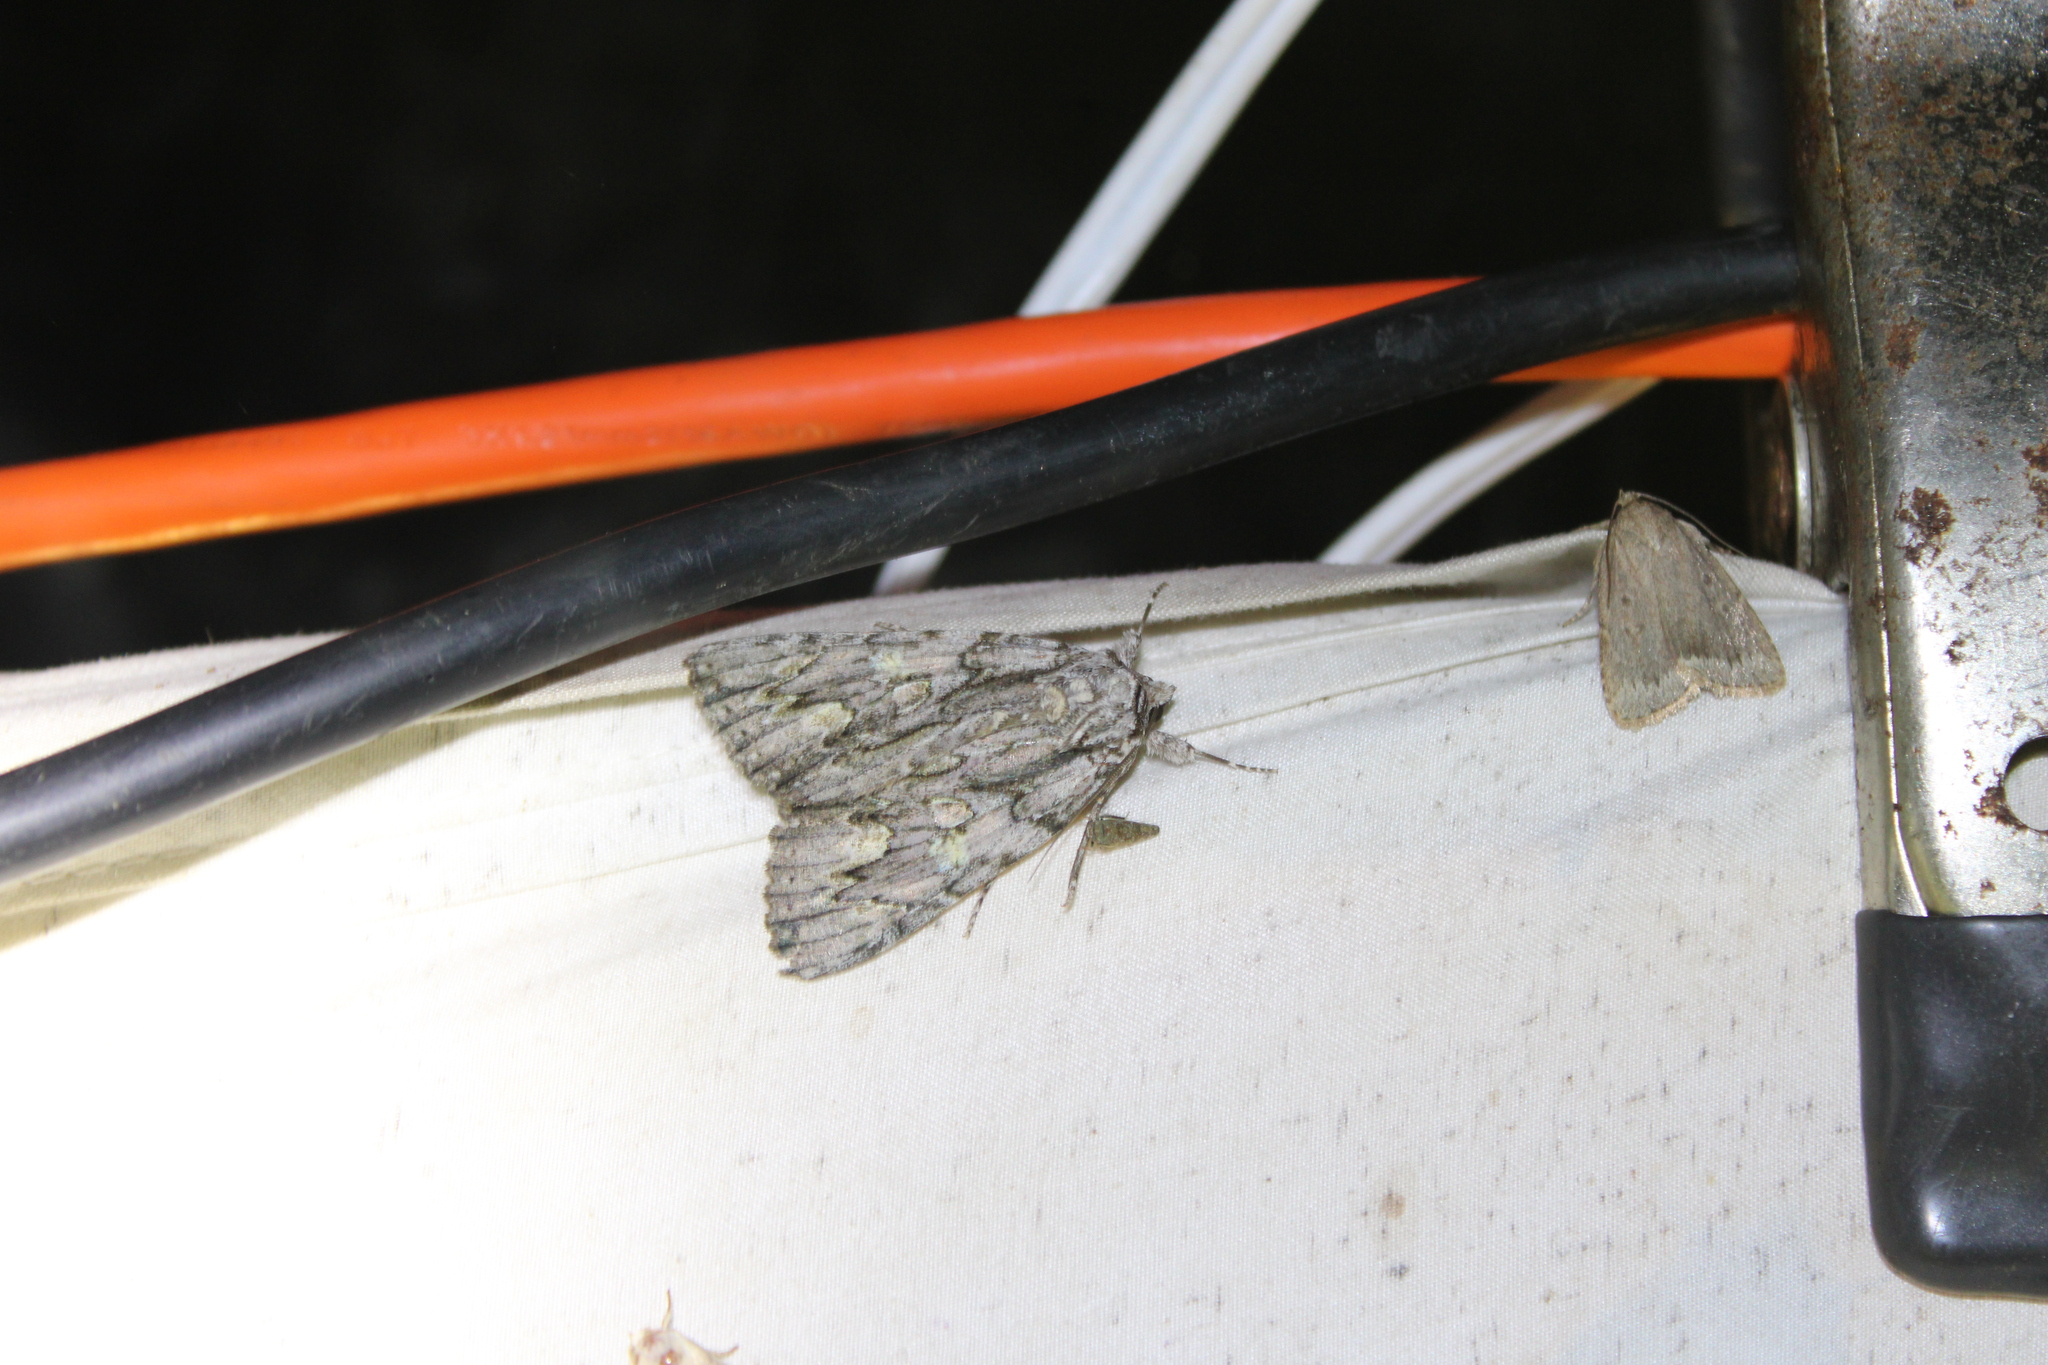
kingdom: Animalia
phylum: Arthropoda
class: Insecta
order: Lepidoptera
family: Erebidae
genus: Catocala
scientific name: Catocala coccinata
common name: Scarlet underwing
